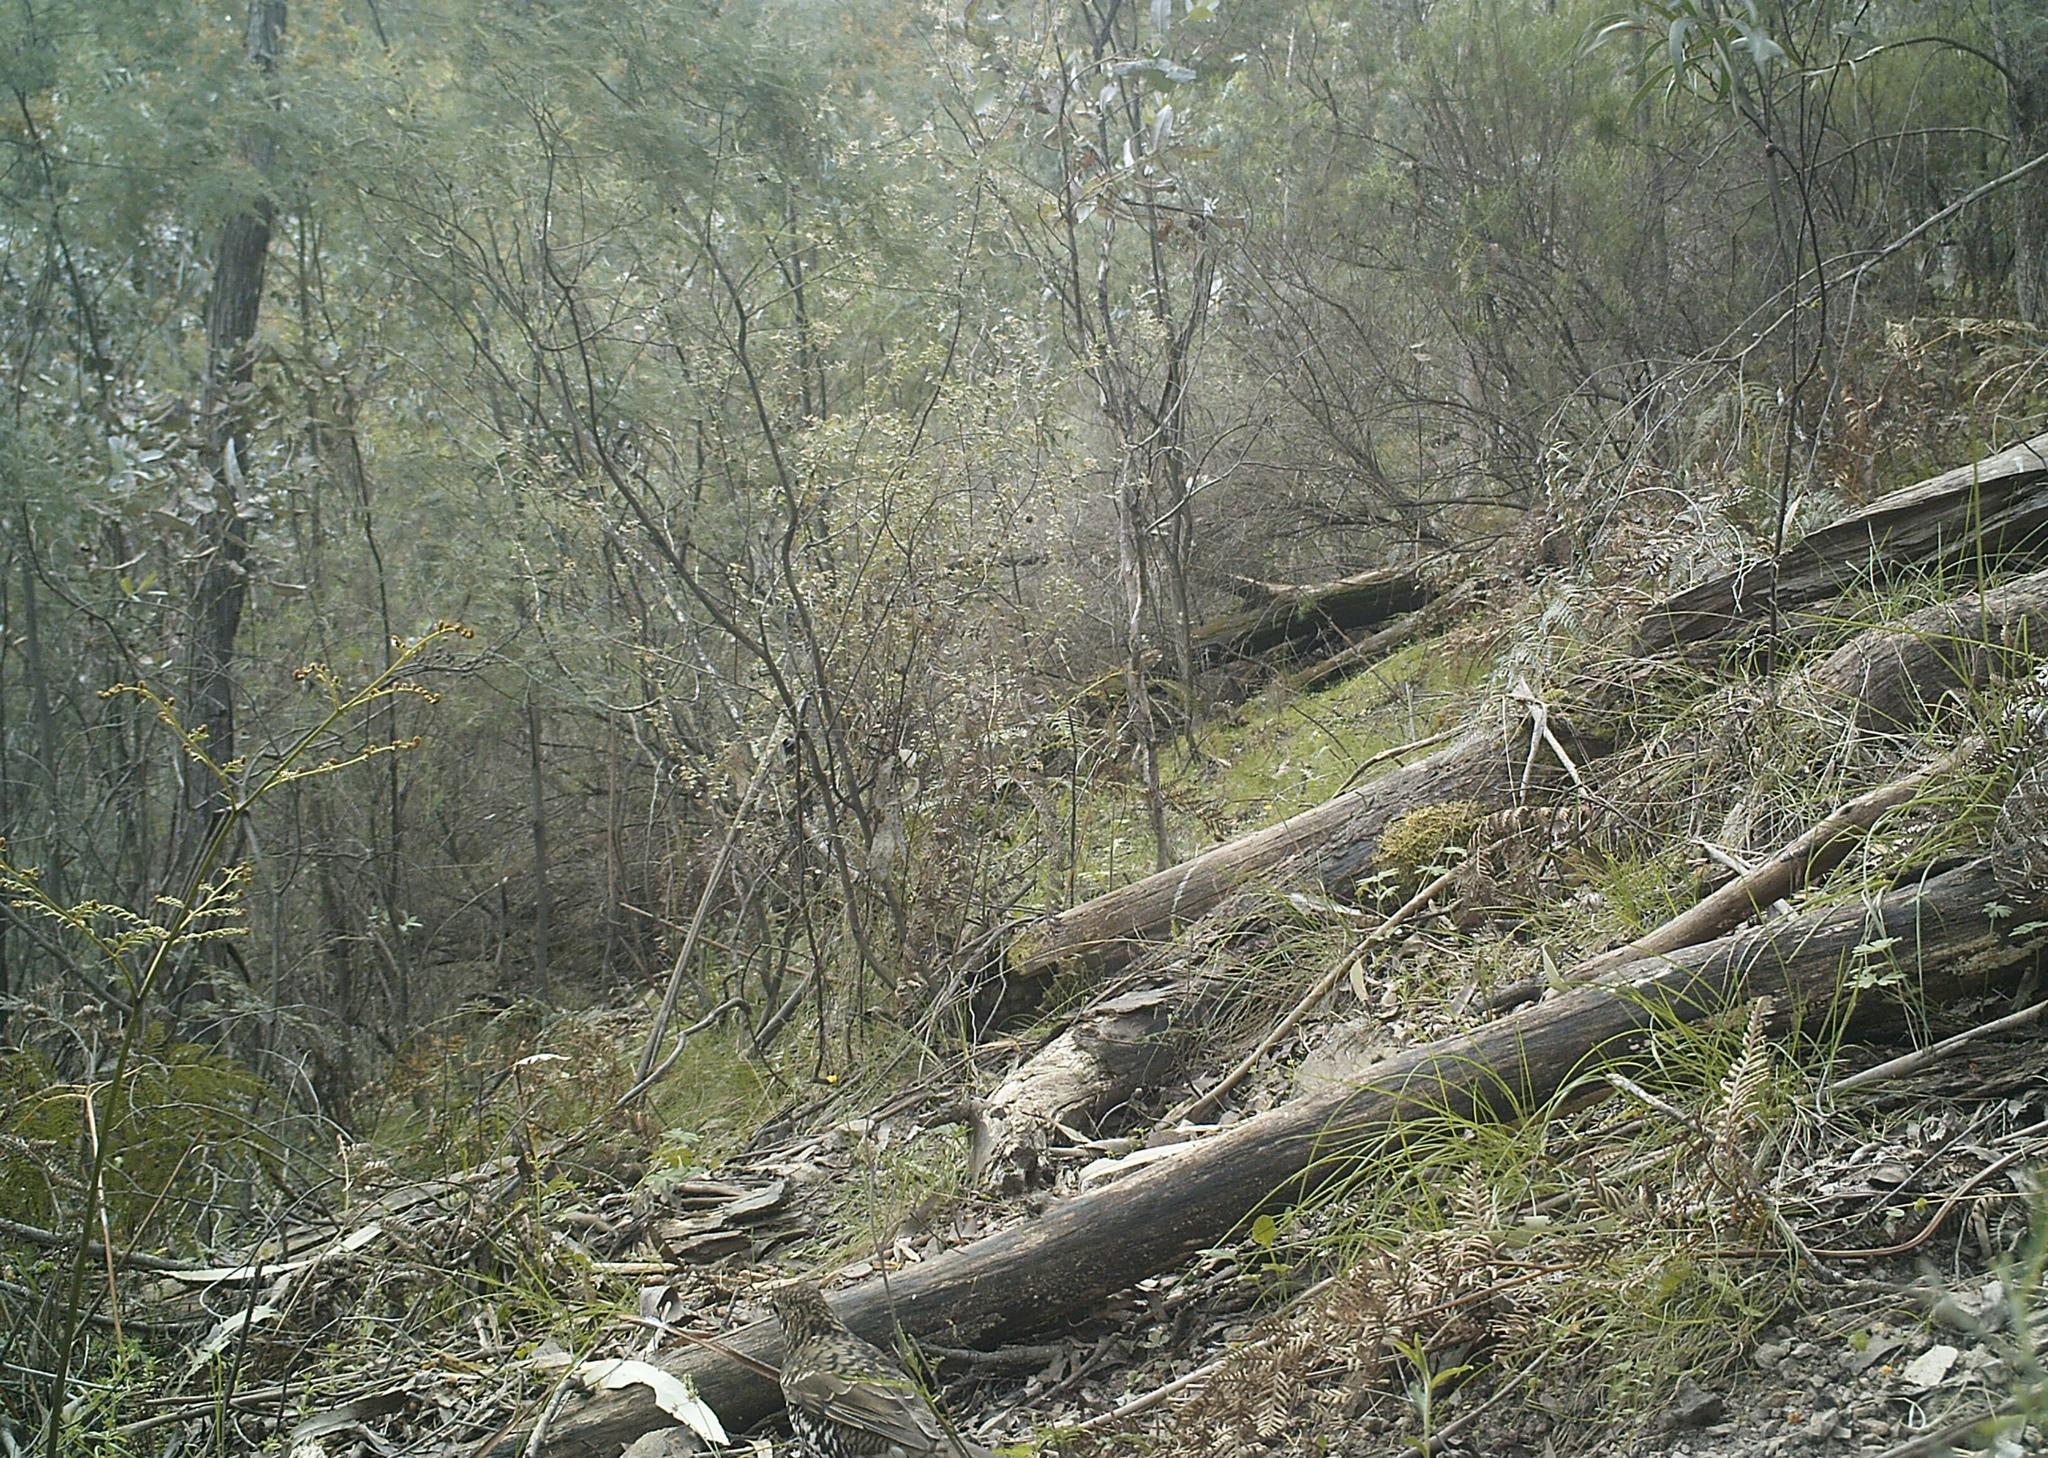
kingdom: Animalia
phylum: Chordata
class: Aves
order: Passeriformes
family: Turdidae
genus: Zoothera
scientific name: Zoothera lunulata
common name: Bassian thrush
